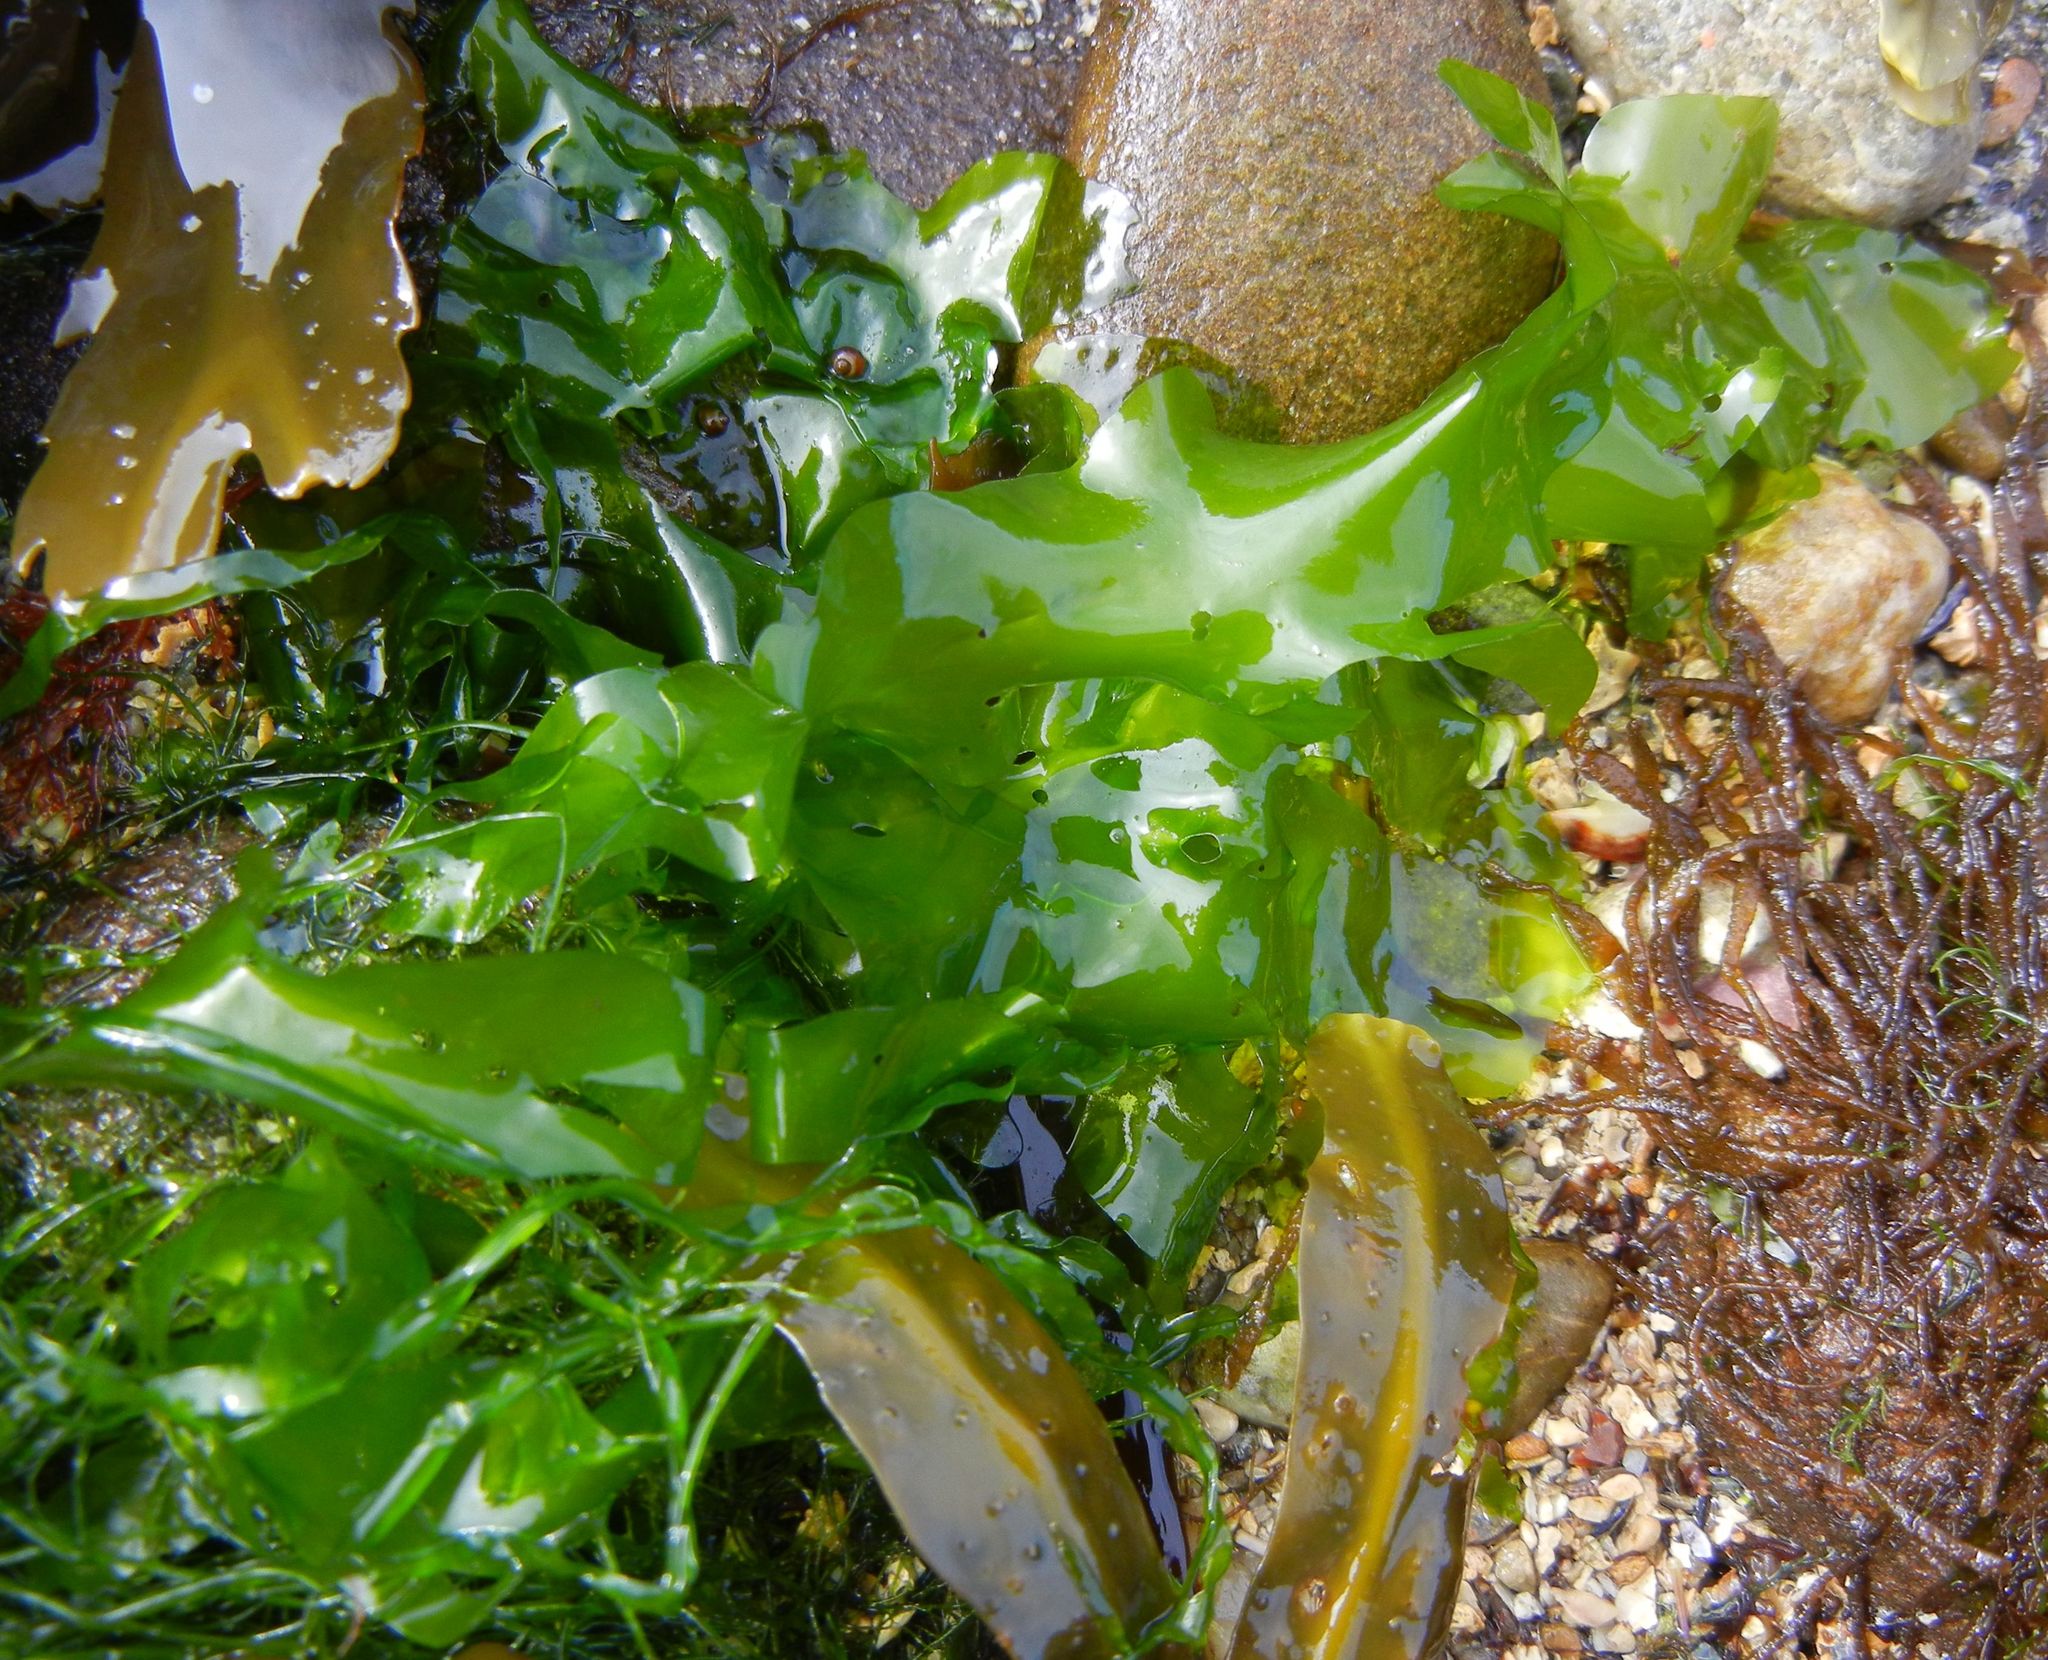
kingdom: Plantae
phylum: Chlorophyta
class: Ulvophyceae
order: Ulvales
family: Ulvaceae
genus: Ulva
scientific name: Ulva lactuca
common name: Sea lettuce
